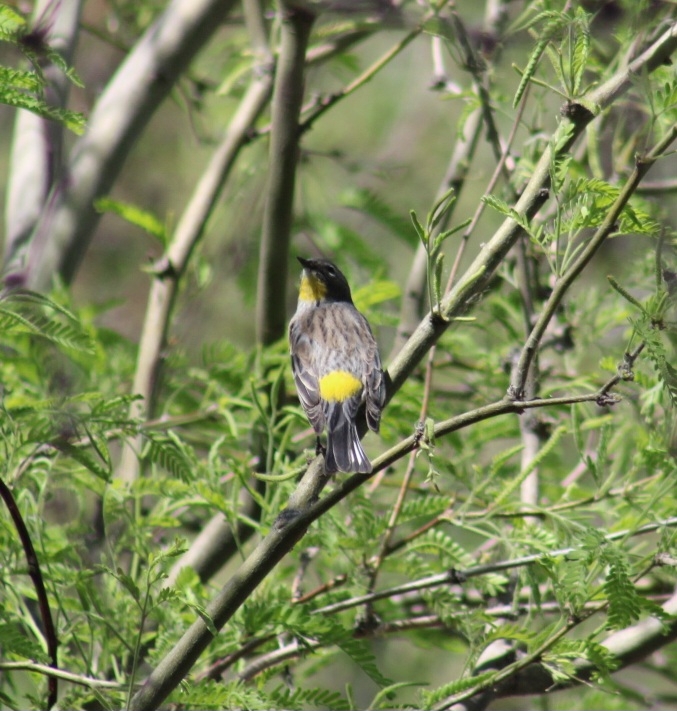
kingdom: Animalia
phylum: Chordata
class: Aves
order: Passeriformes
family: Parulidae
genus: Setophaga
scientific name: Setophaga auduboni
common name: Audubon's warbler
